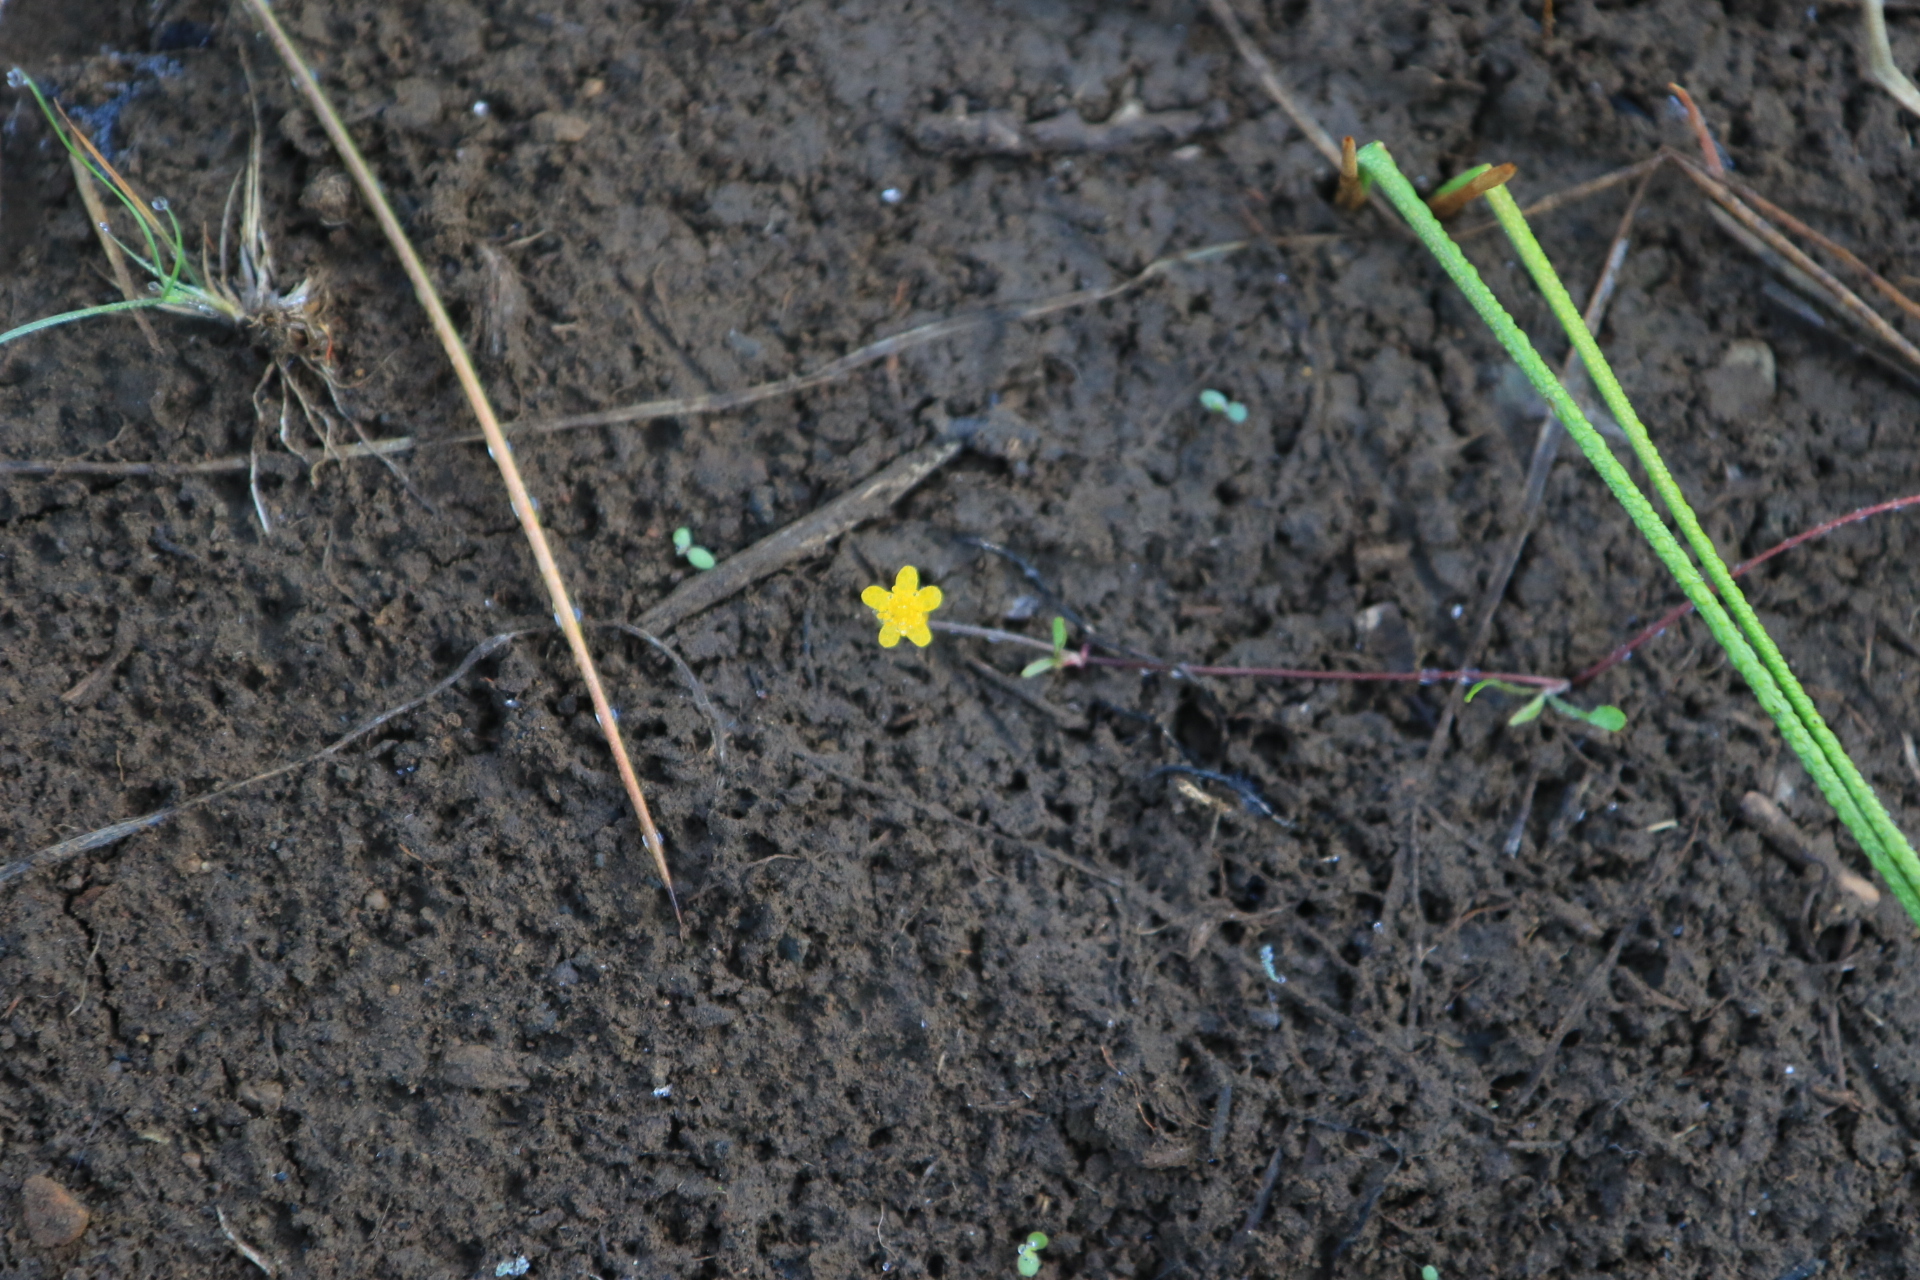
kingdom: Plantae
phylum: Tracheophyta
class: Magnoliopsida
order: Ranunculales
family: Ranunculaceae
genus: Ranunculus
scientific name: Ranunculus flammula
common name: Lesser spearwort
